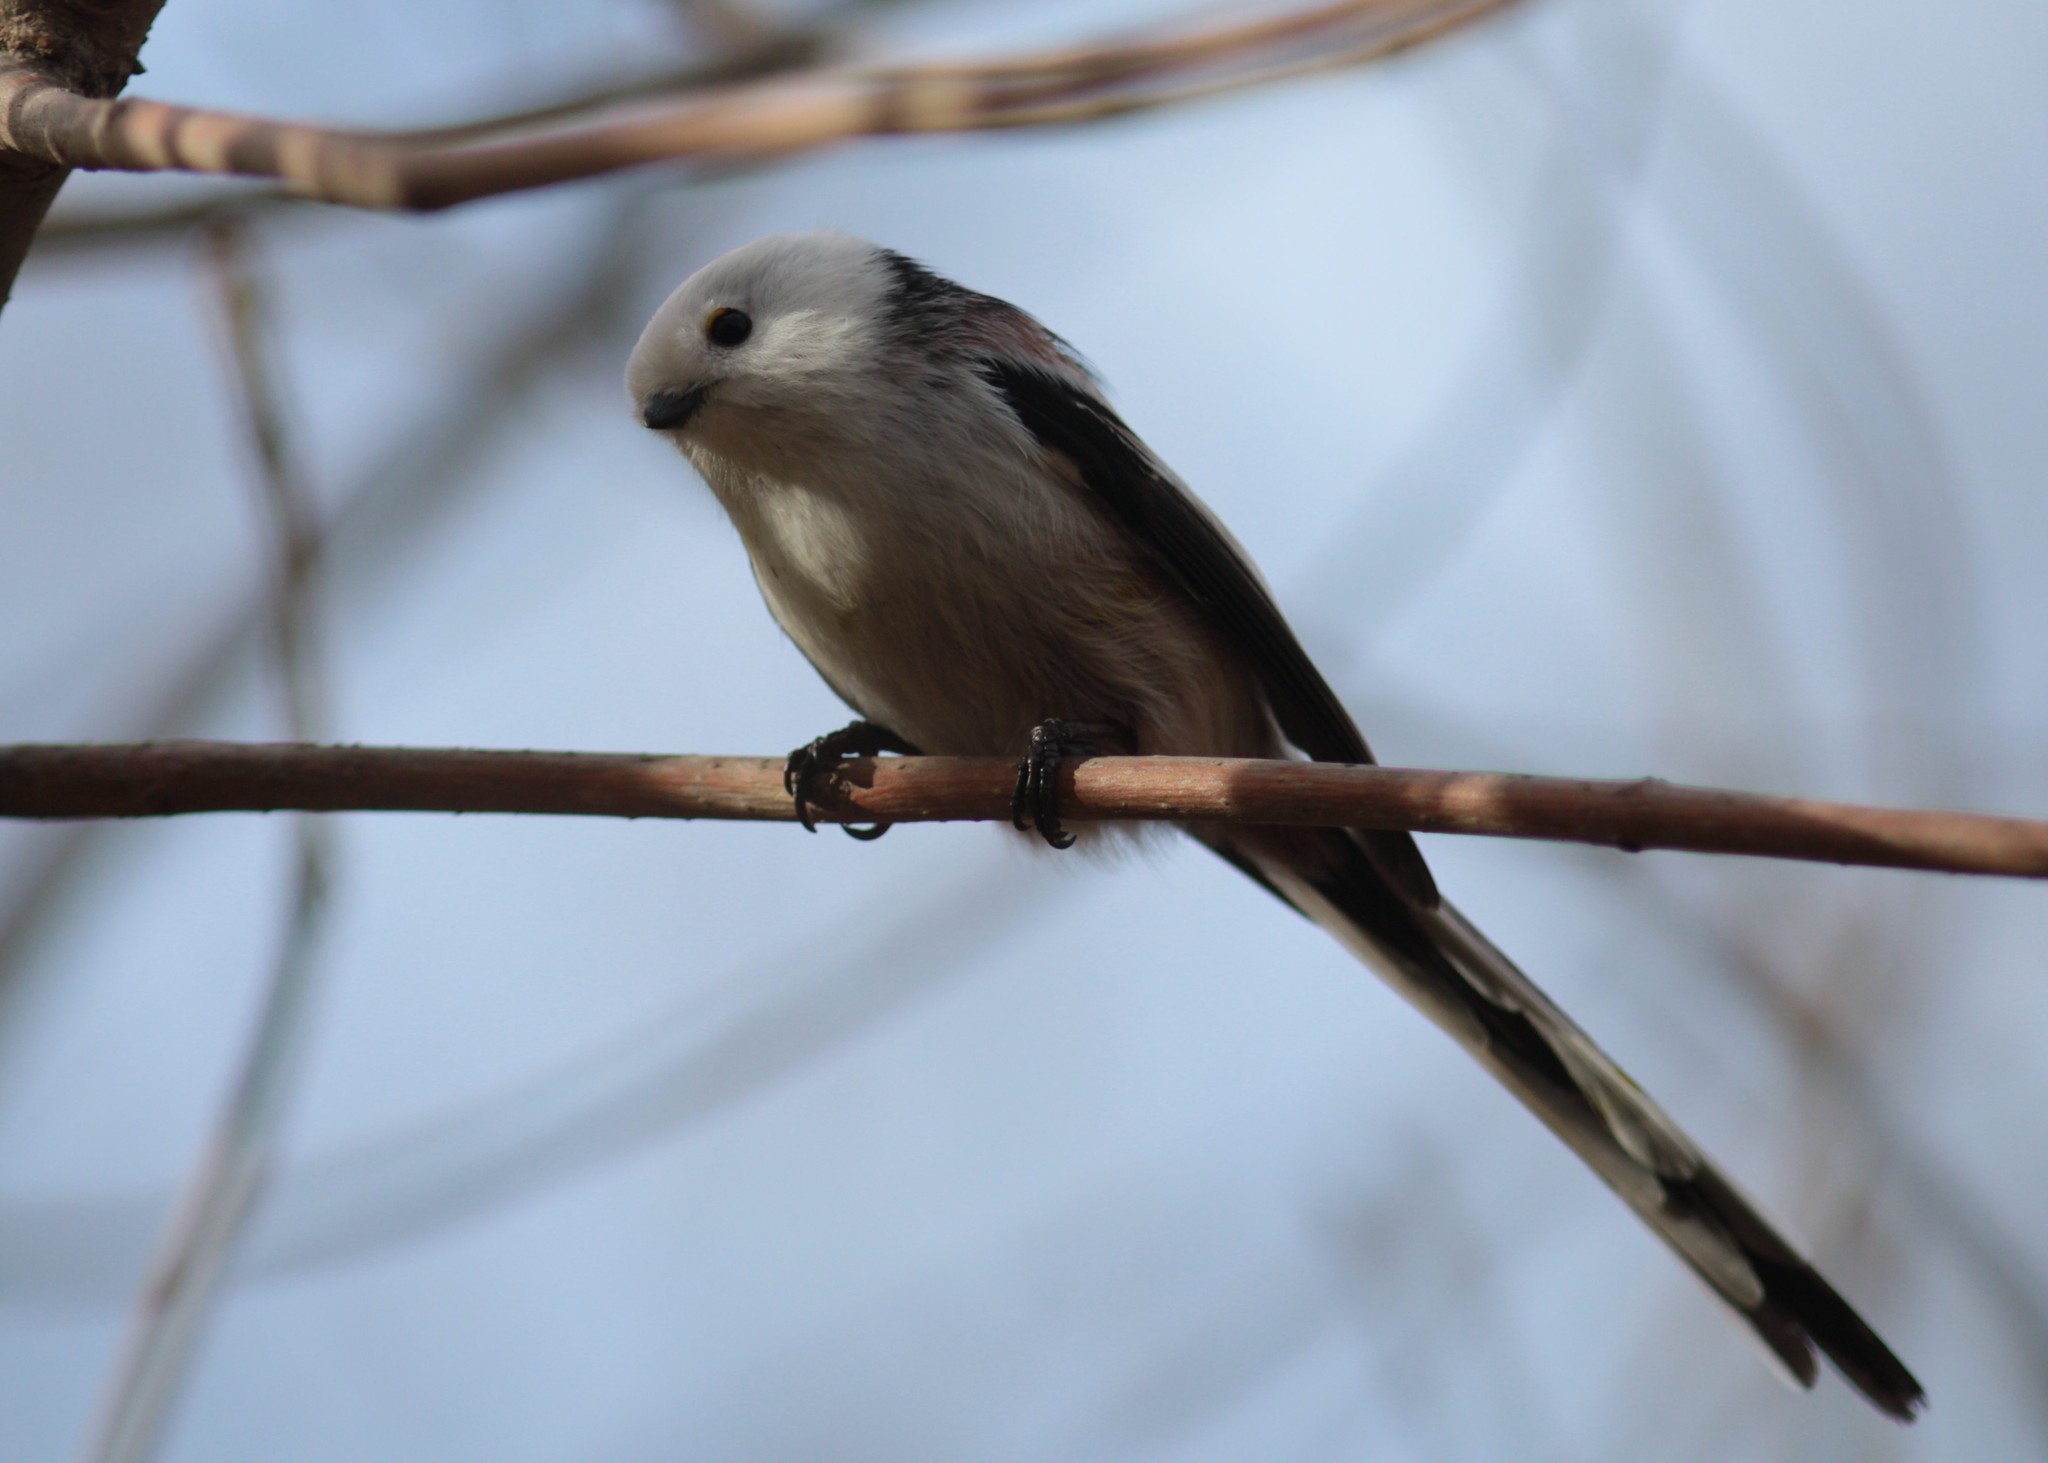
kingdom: Animalia
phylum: Chordata
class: Aves
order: Passeriformes
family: Aegithalidae
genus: Aegithalos
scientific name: Aegithalos caudatus
